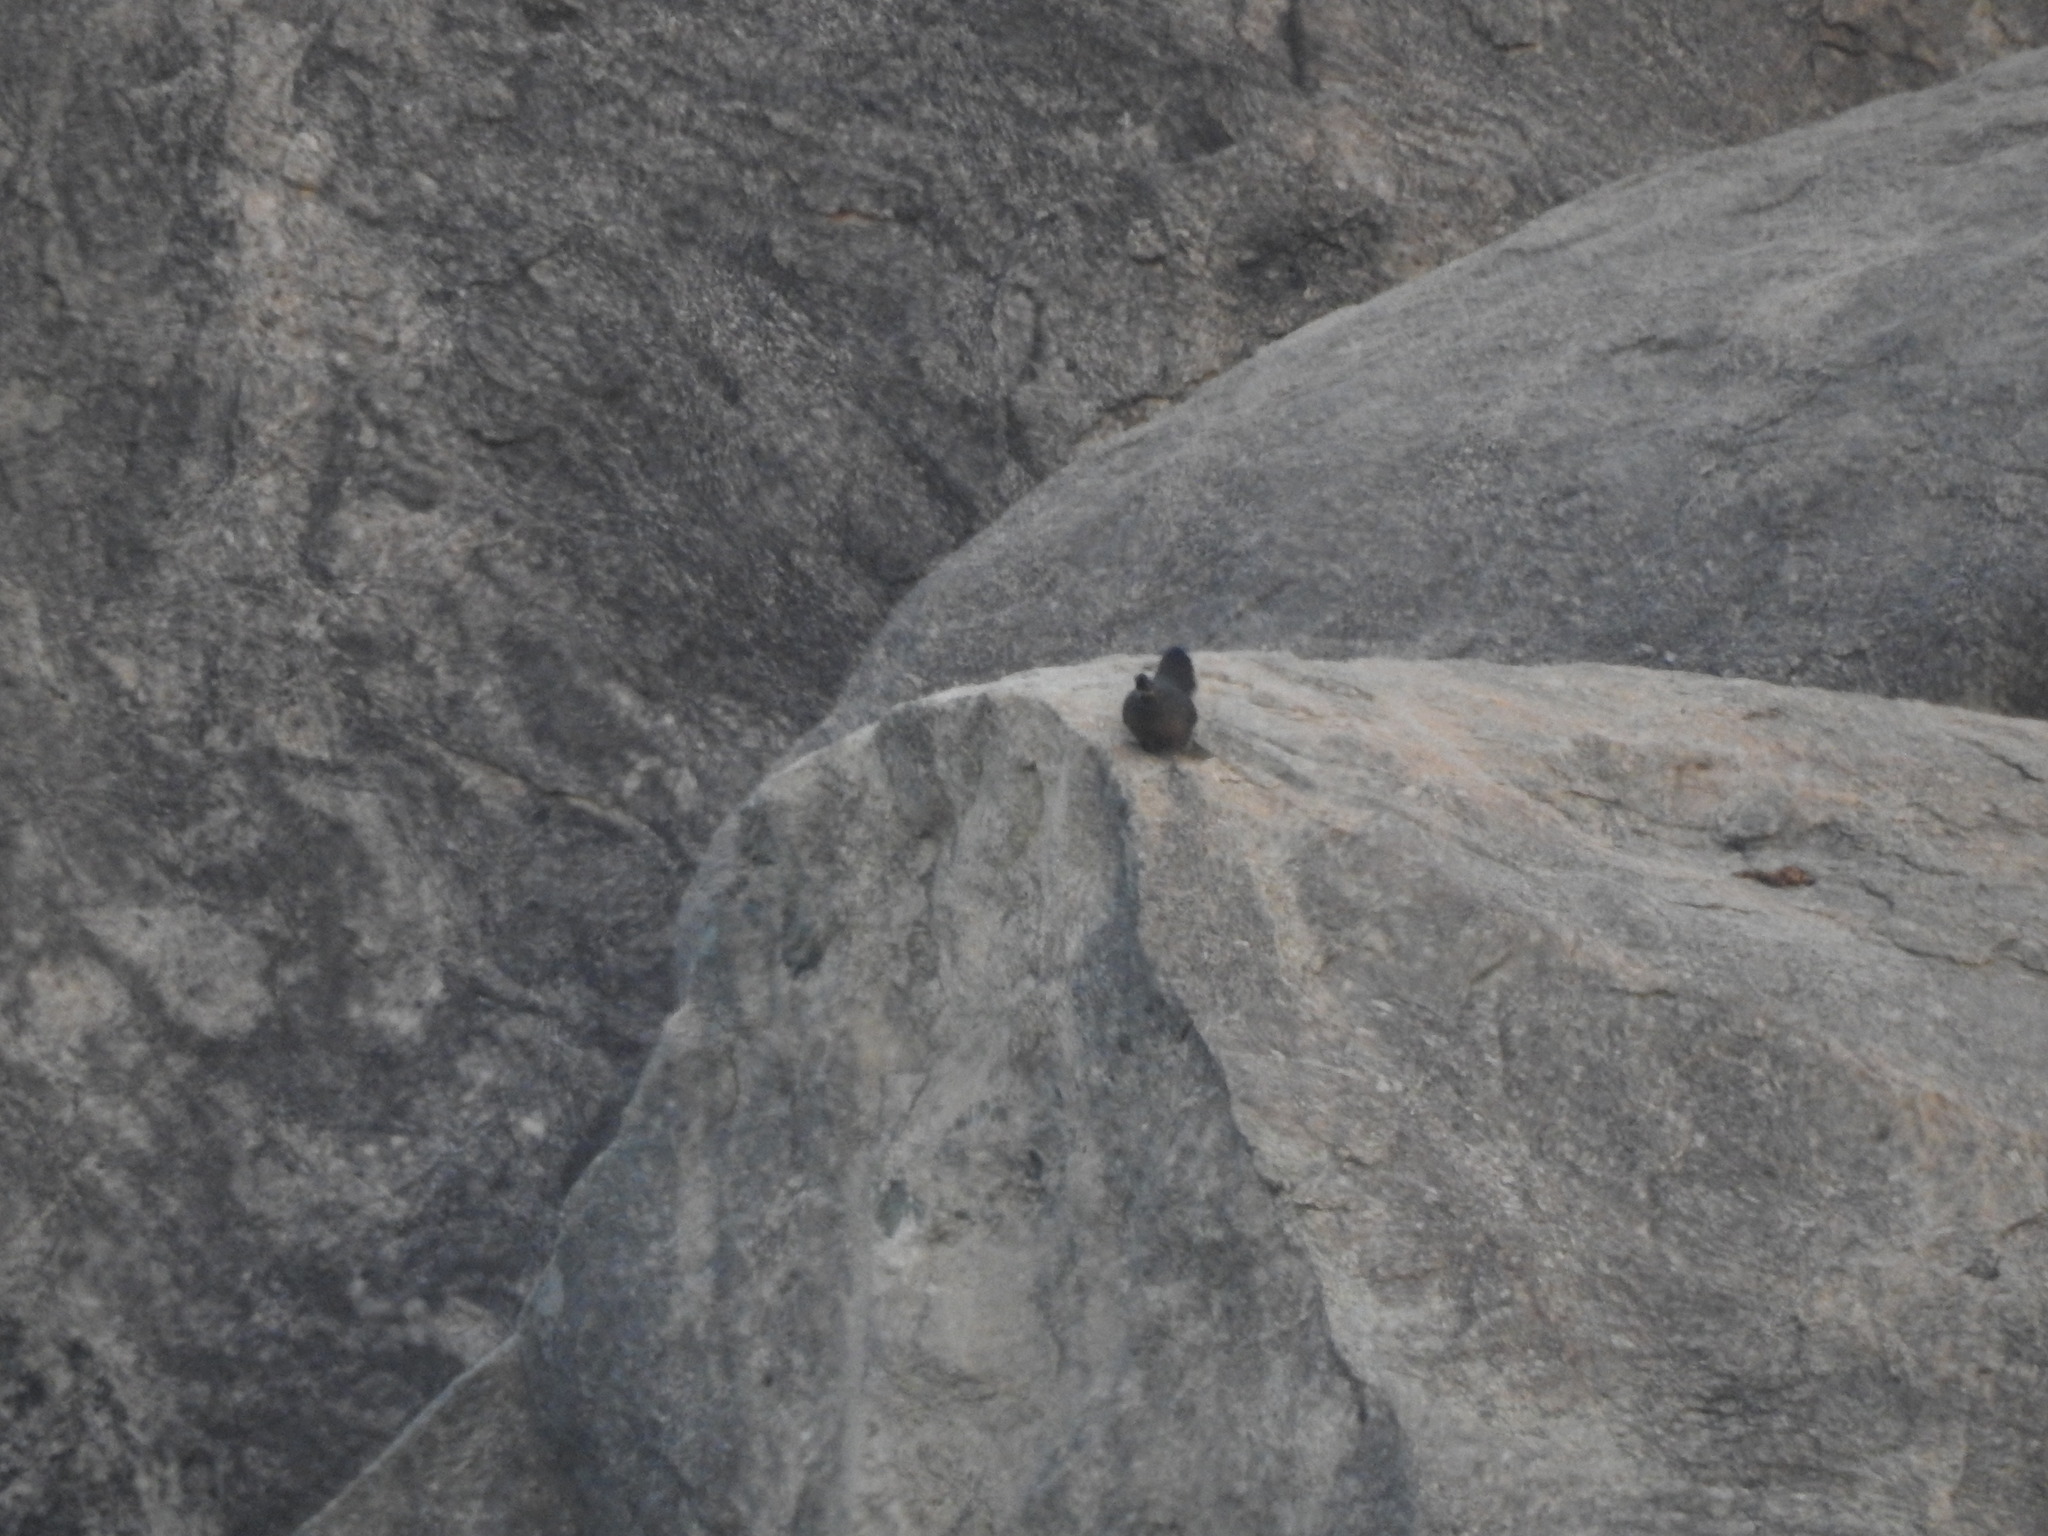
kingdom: Animalia
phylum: Chordata
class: Aves
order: Galliformes
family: Phasianidae
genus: Galloperdix
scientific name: Galloperdix lunulata
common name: Painted spurfowl
